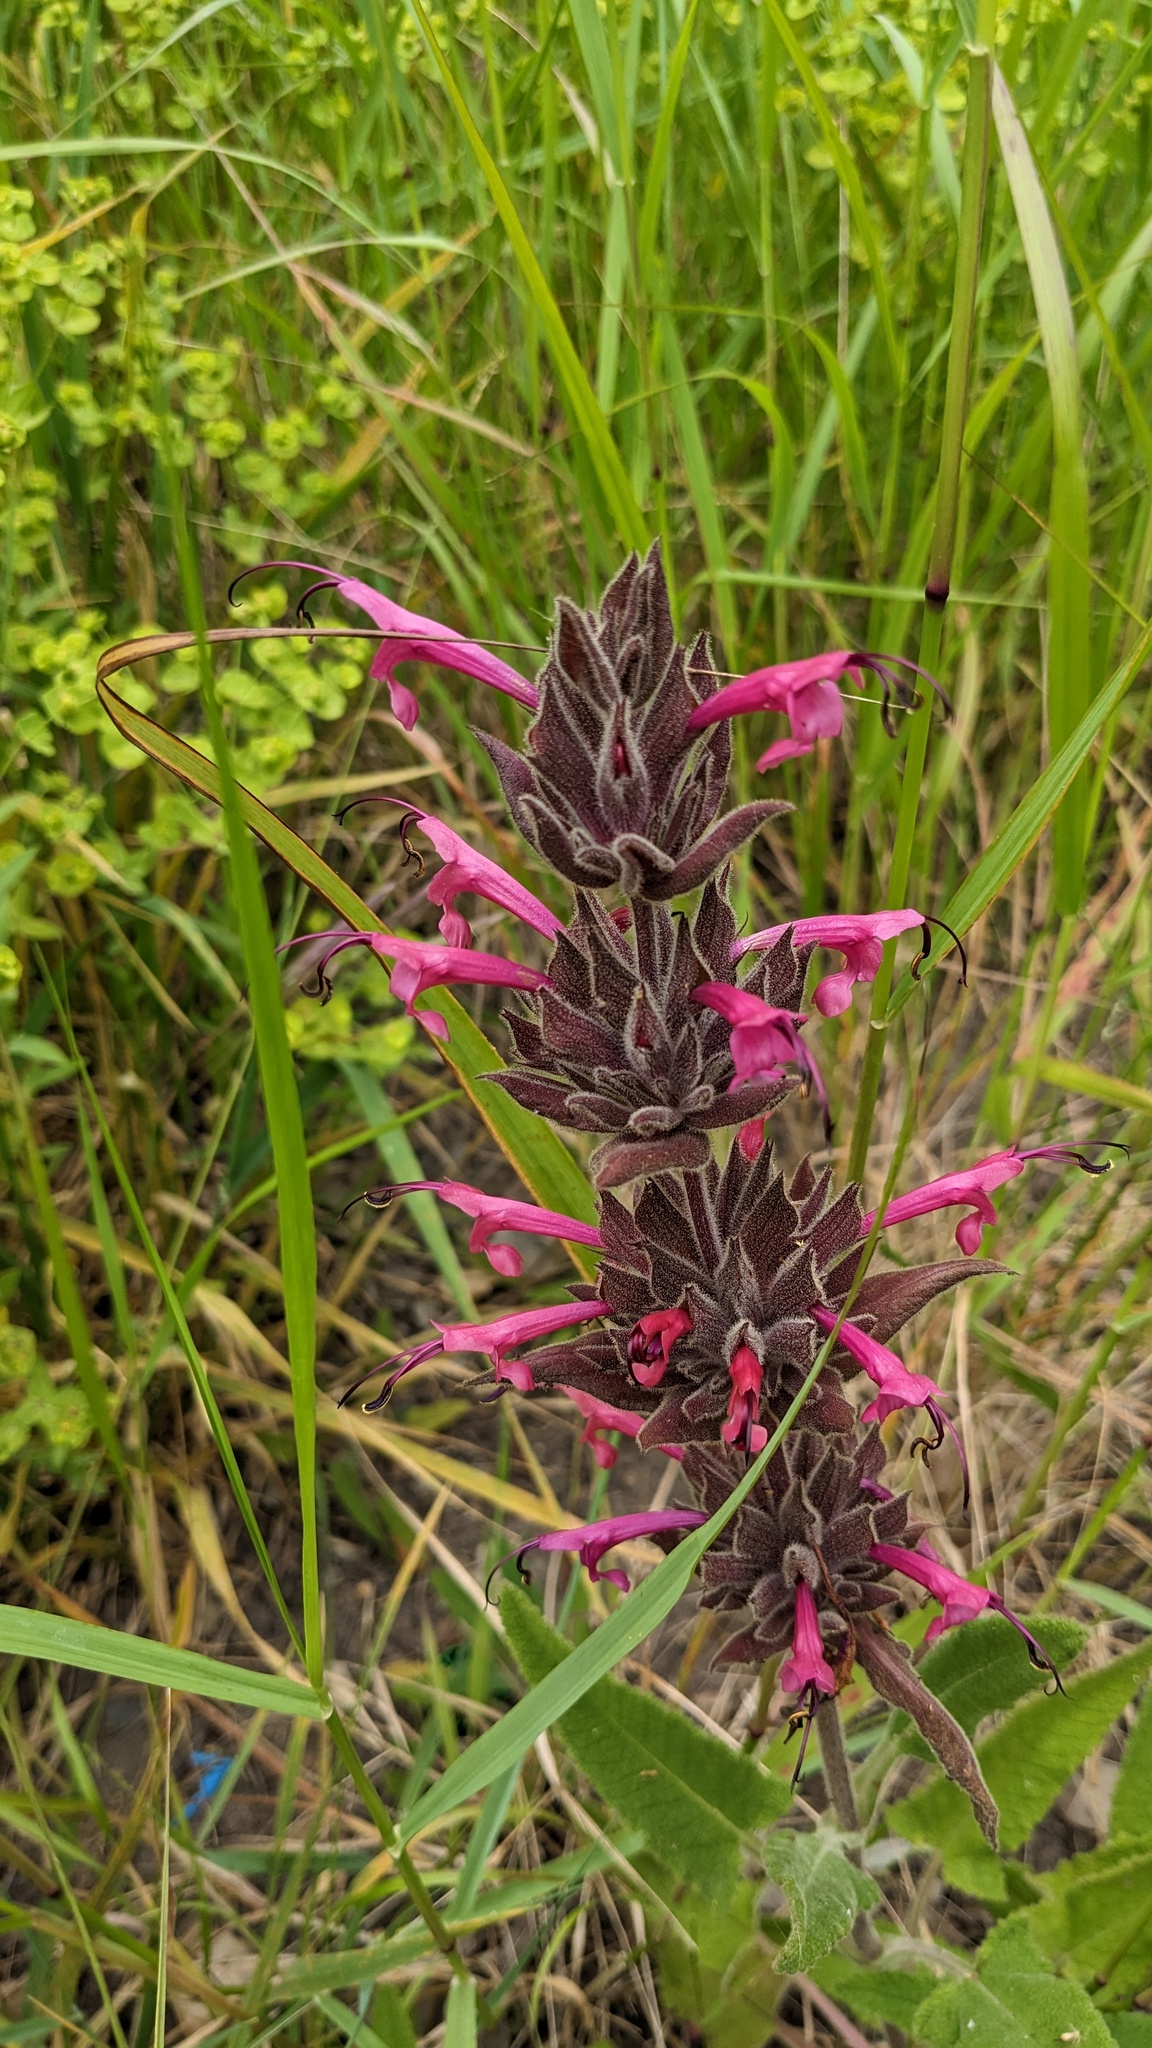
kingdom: Plantae
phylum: Tracheophyta
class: Magnoliopsida
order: Lamiales
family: Lamiaceae
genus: Salvia
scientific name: Salvia spathacea
